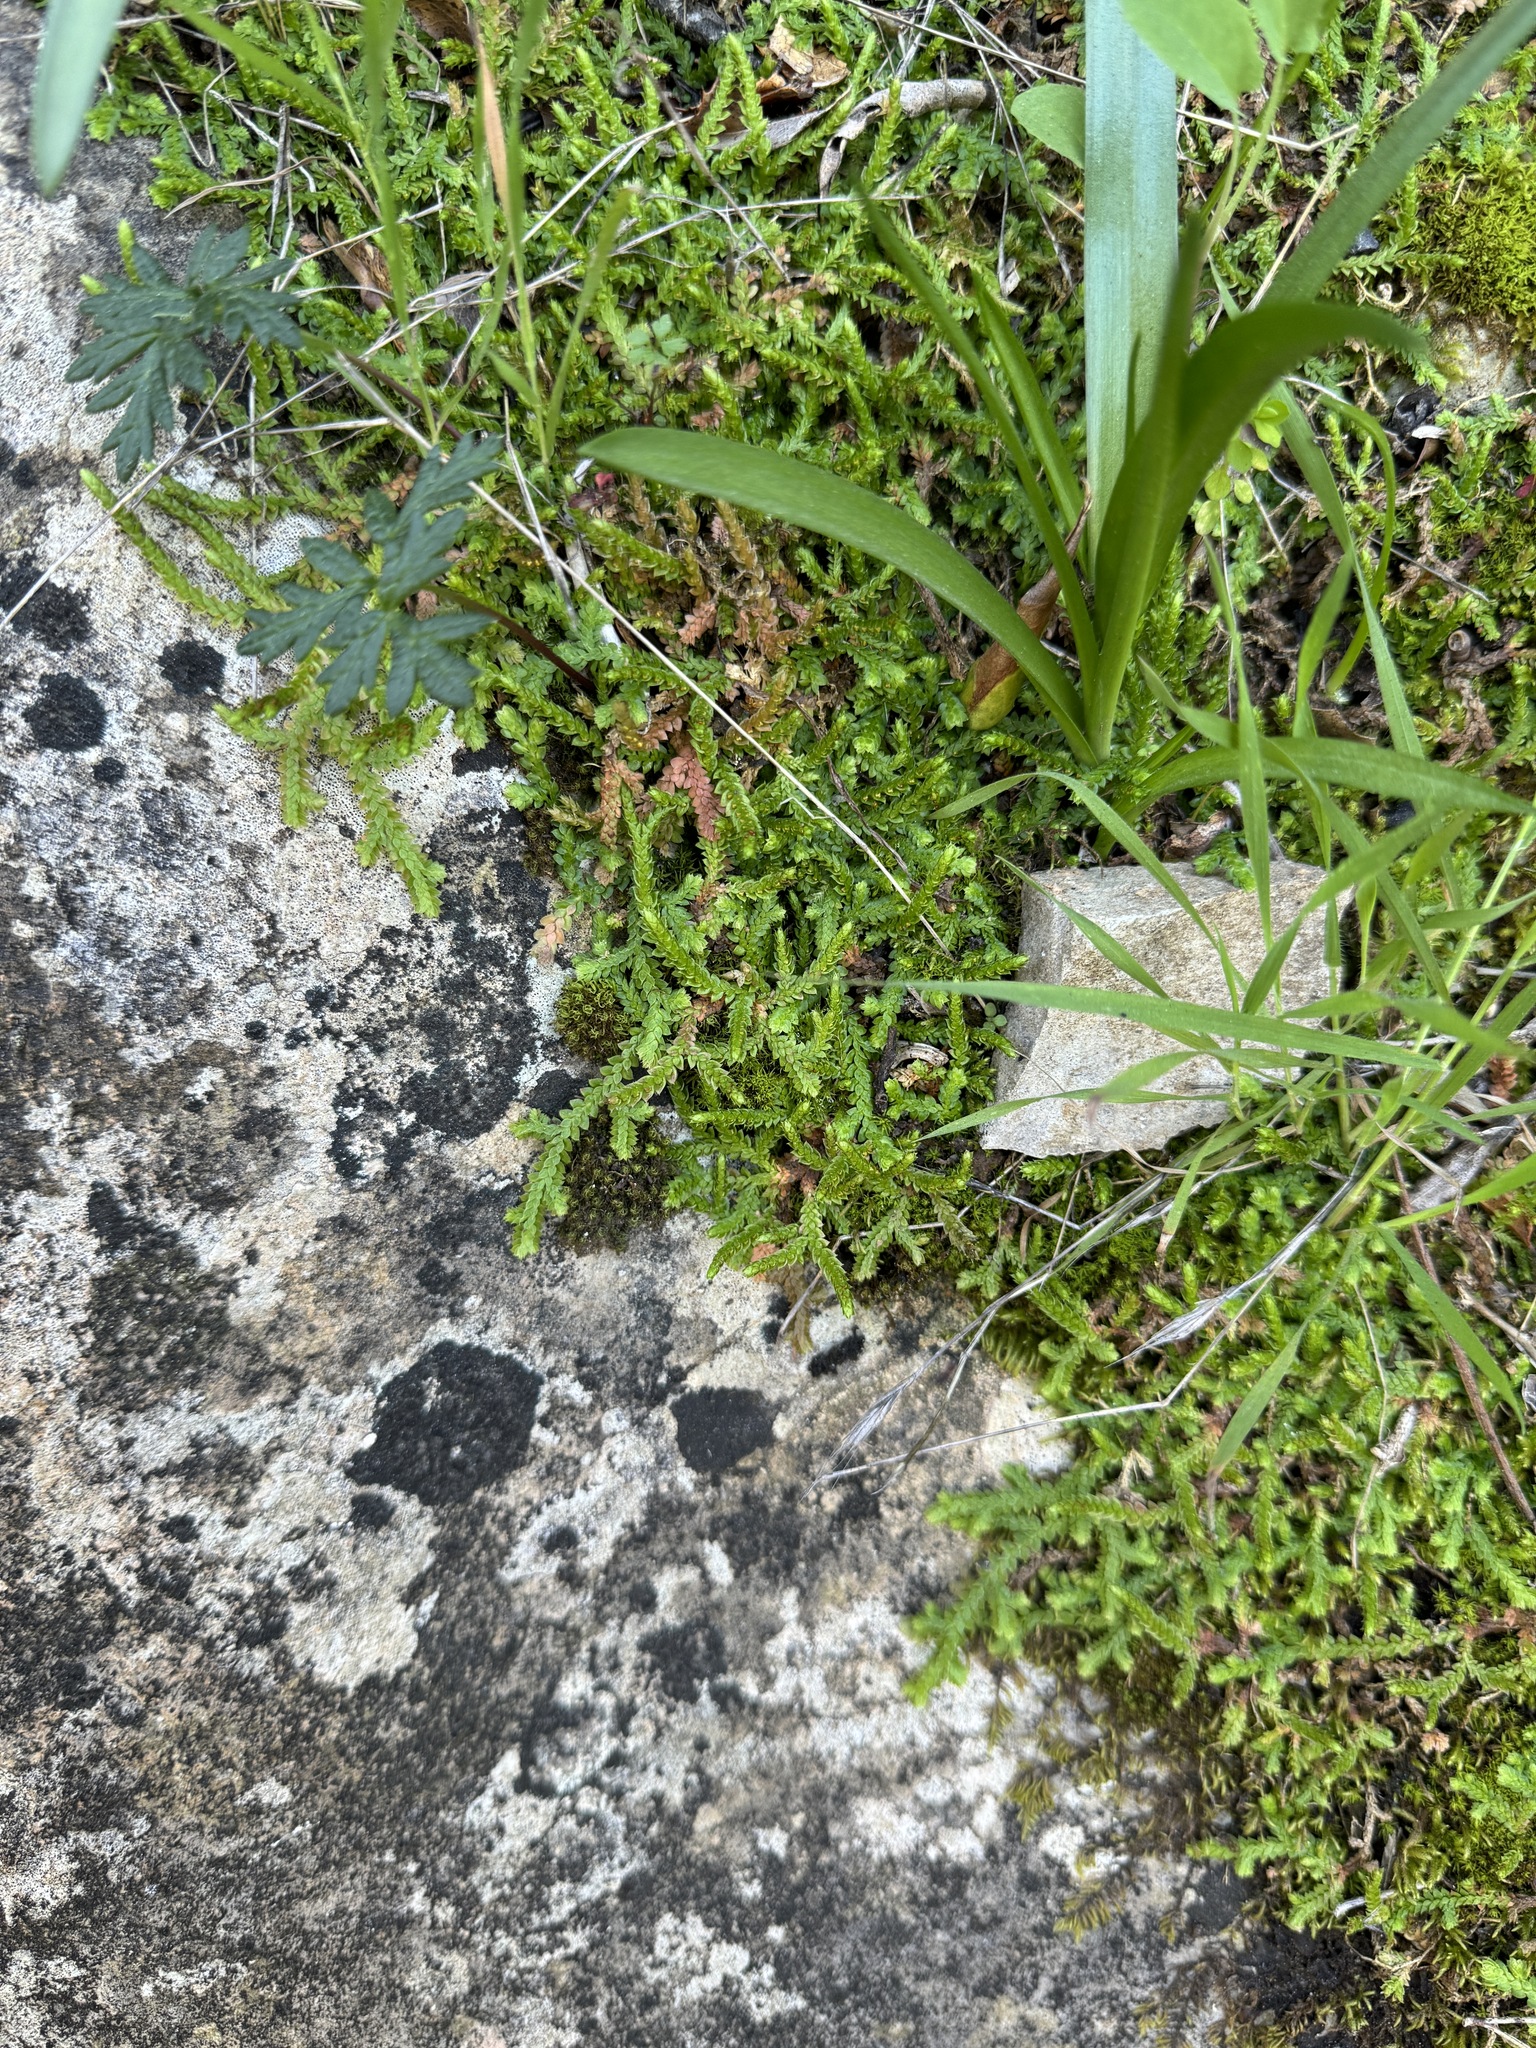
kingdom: Plantae
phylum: Tracheophyta
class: Lycopodiopsida
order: Selaginellales
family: Selaginellaceae
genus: Selaginella
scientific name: Selaginella denticulata
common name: Toothed-leaved clubmoss
